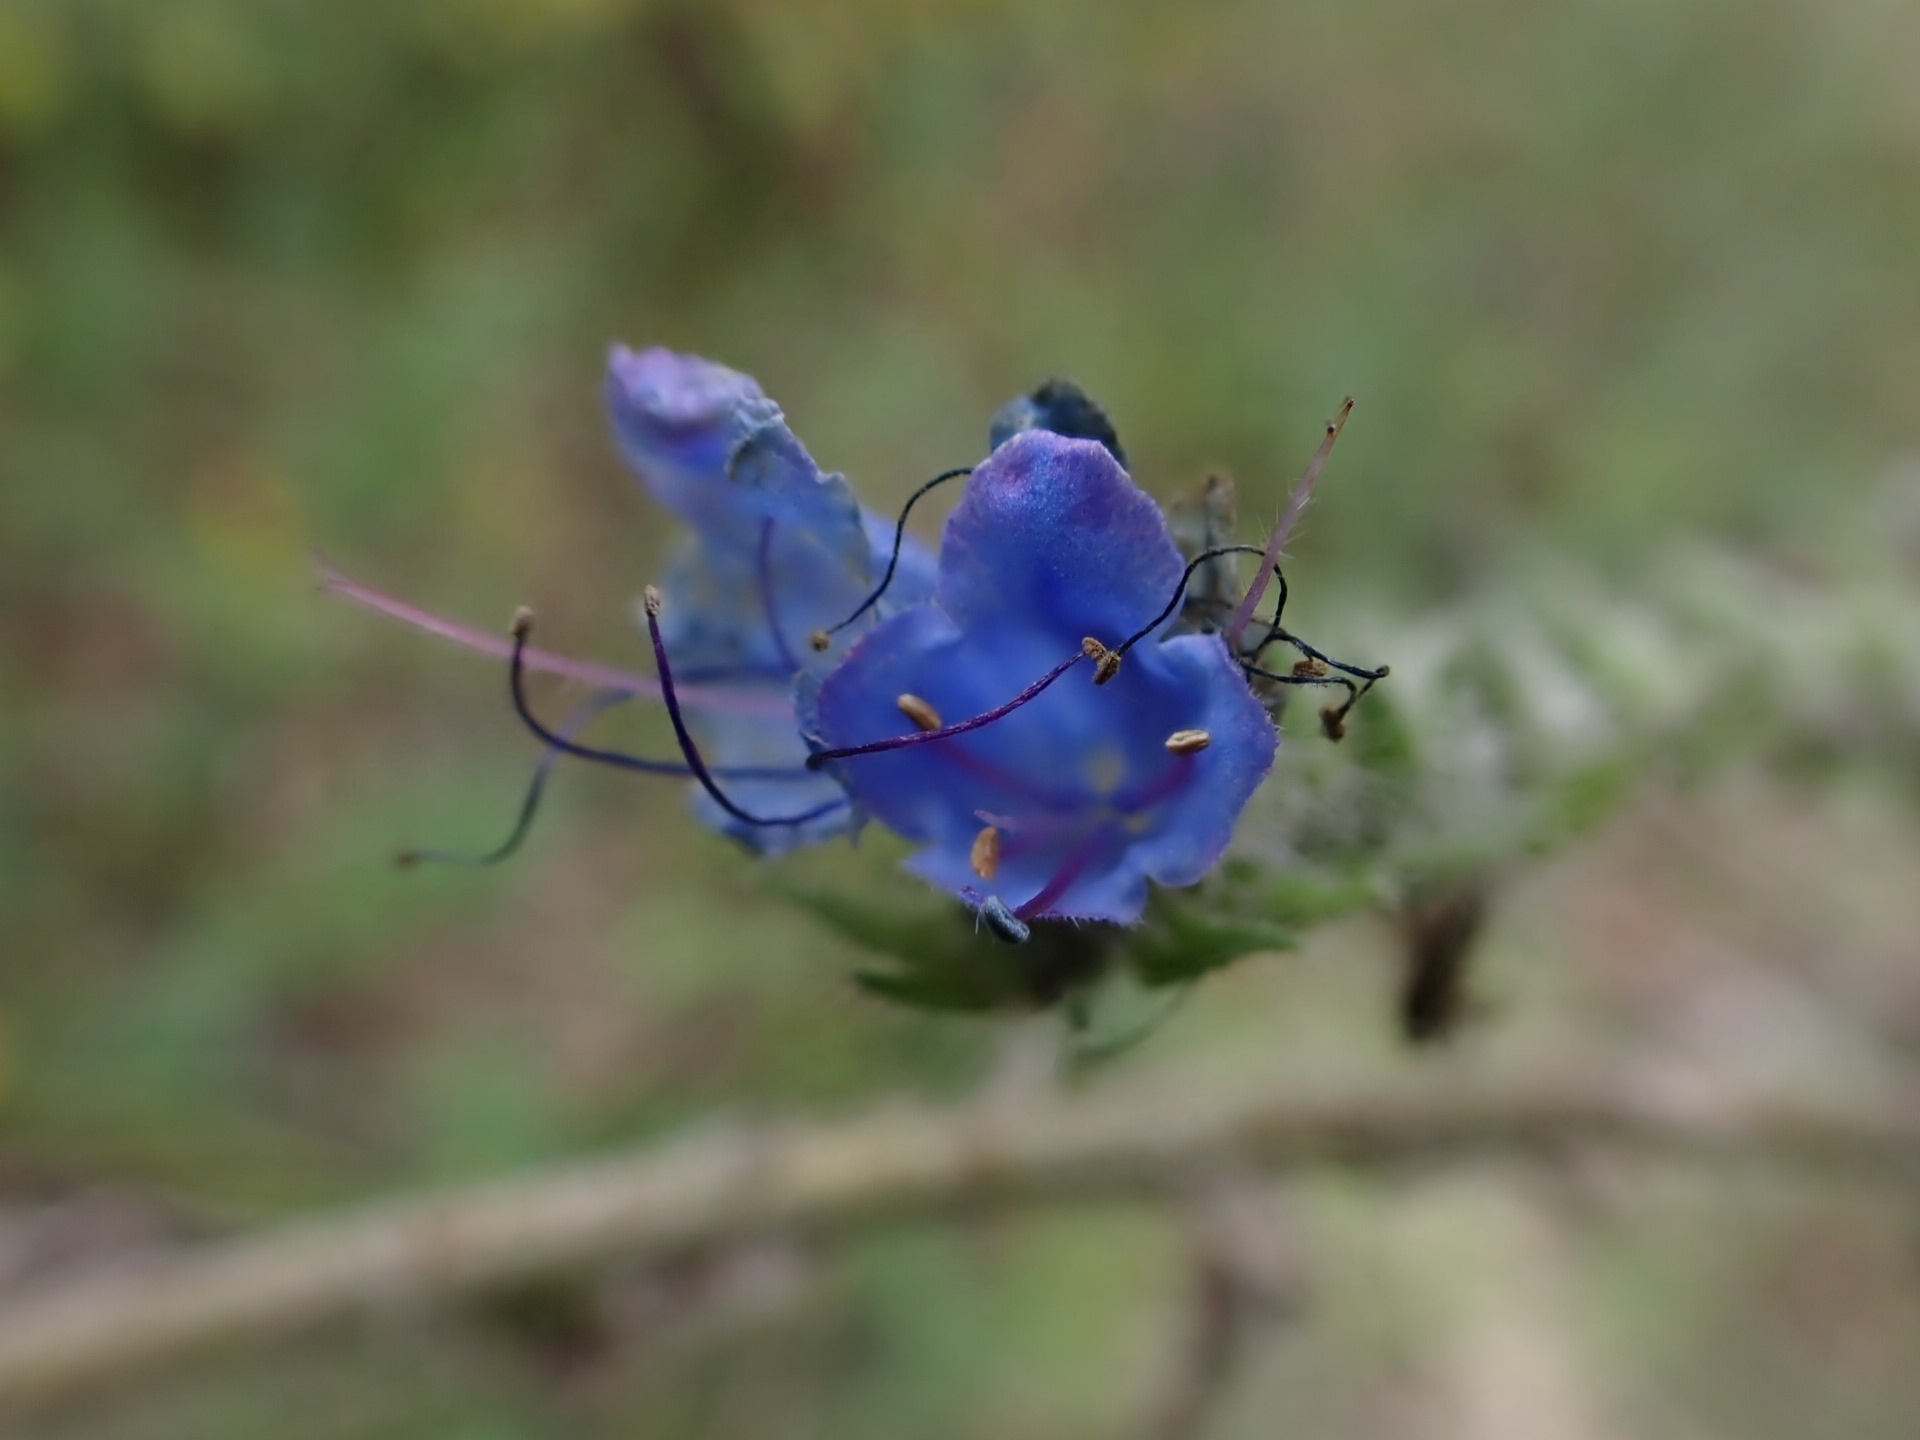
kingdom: Plantae
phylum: Tracheophyta
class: Magnoliopsida
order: Boraginales
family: Boraginaceae
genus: Echium
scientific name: Echium vulgare
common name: Common viper's bugloss
